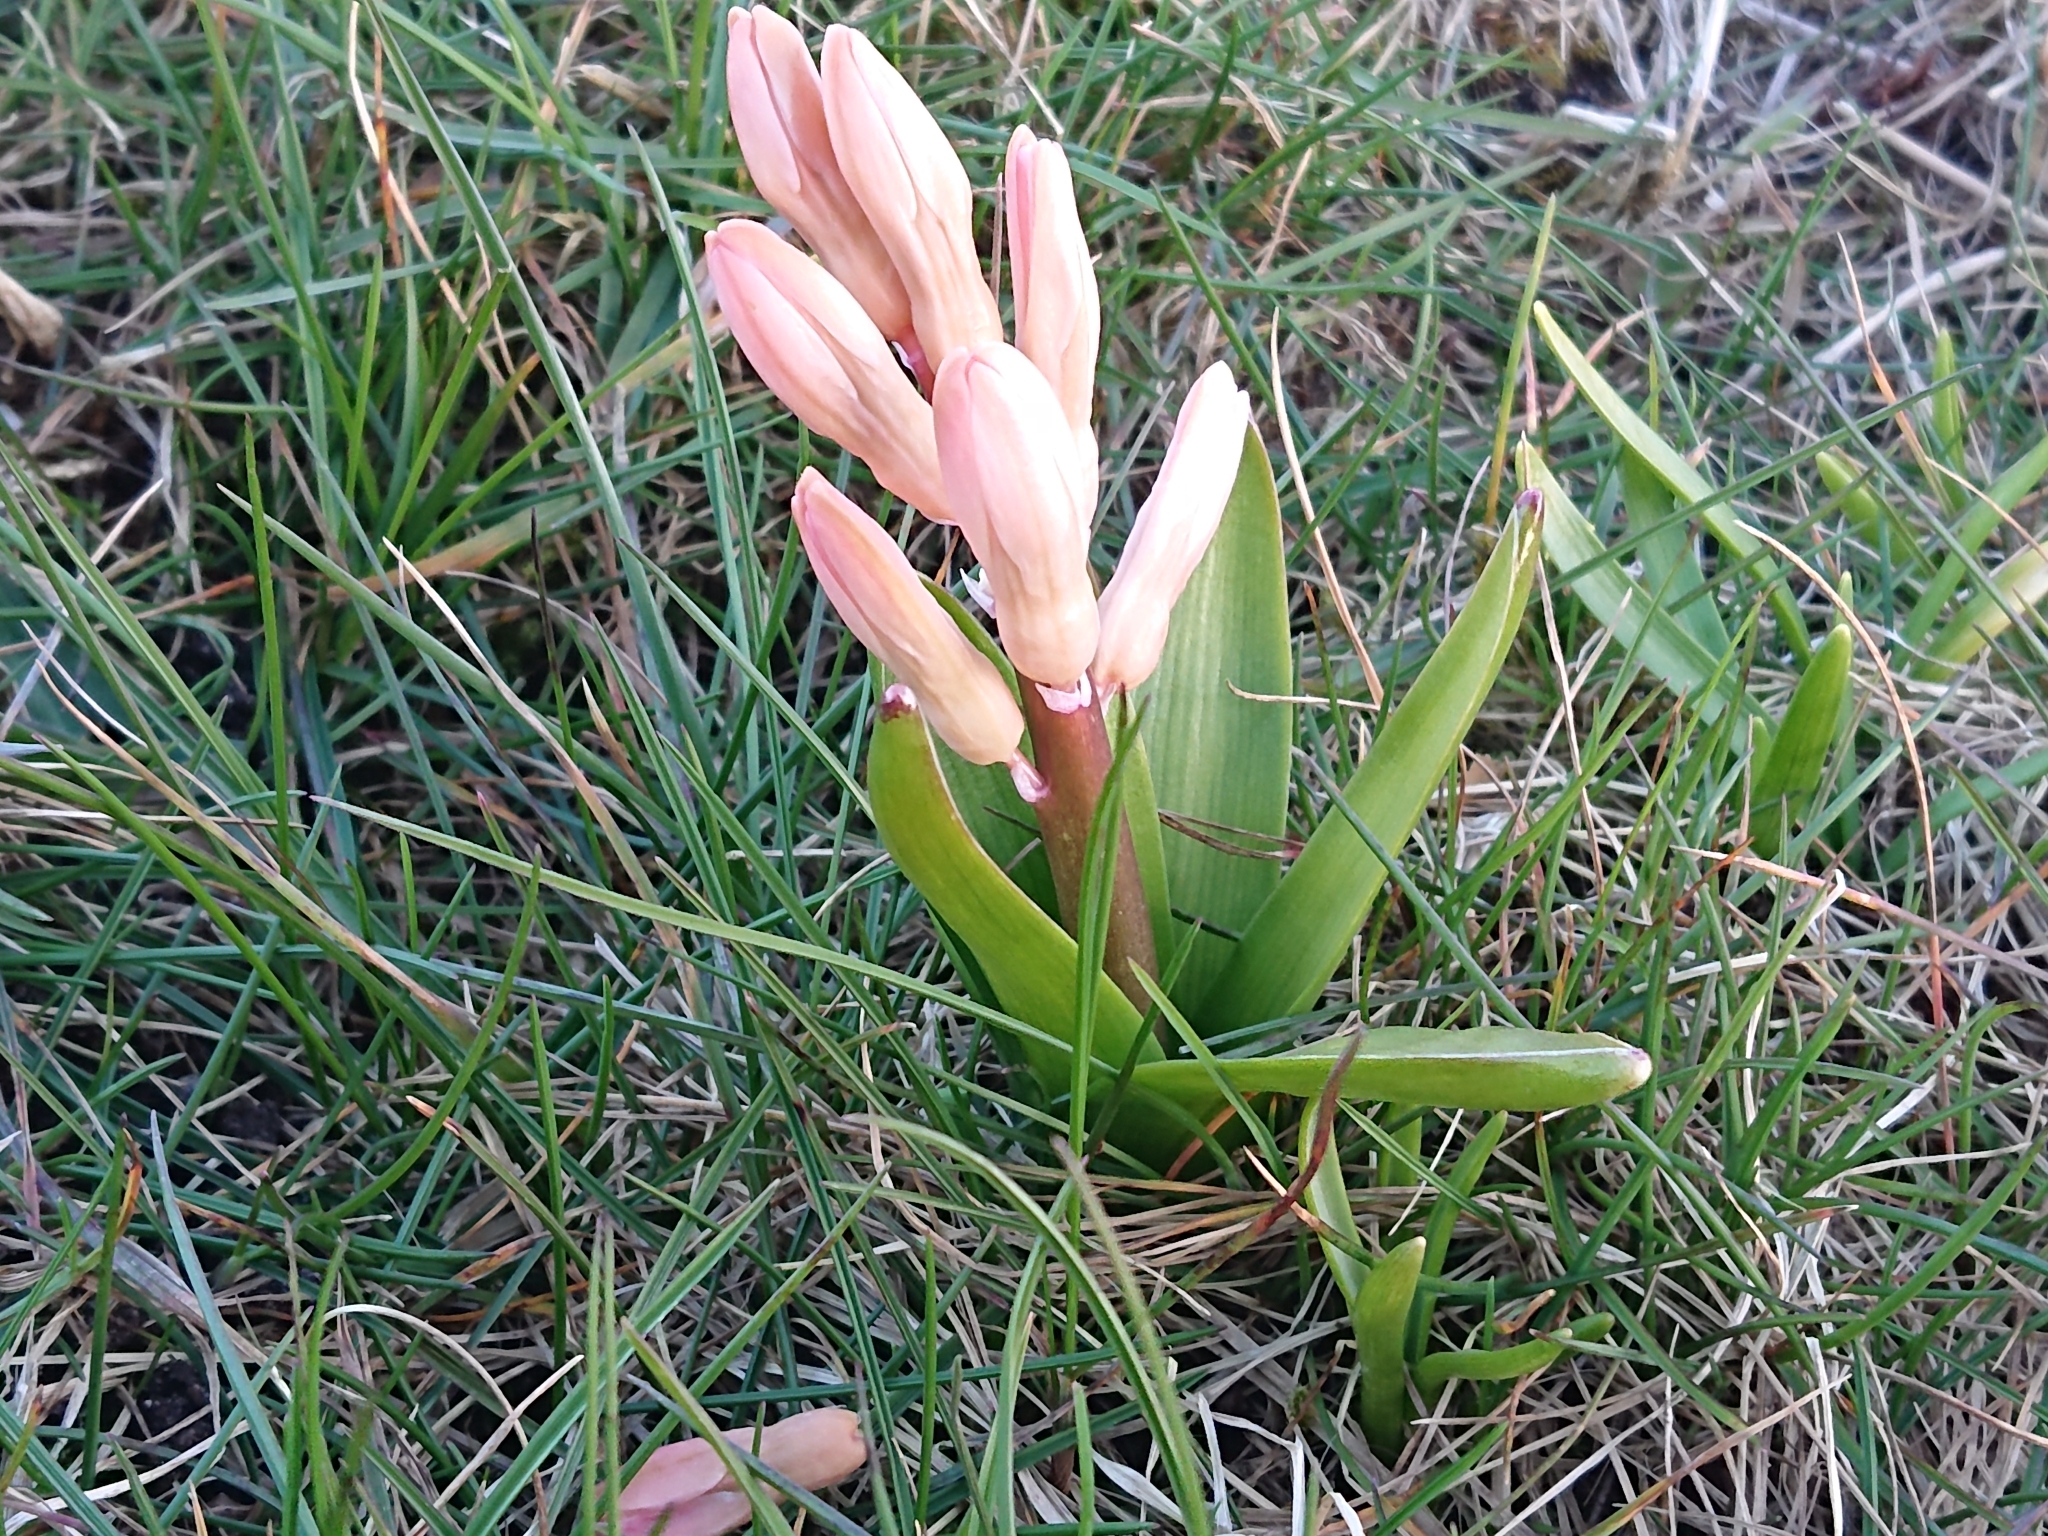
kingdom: Plantae
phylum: Tracheophyta
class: Liliopsida
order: Asparagales
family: Asparagaceae
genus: Hyacinthus
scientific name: Hyacinthus orientalis
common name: Hyacinth
